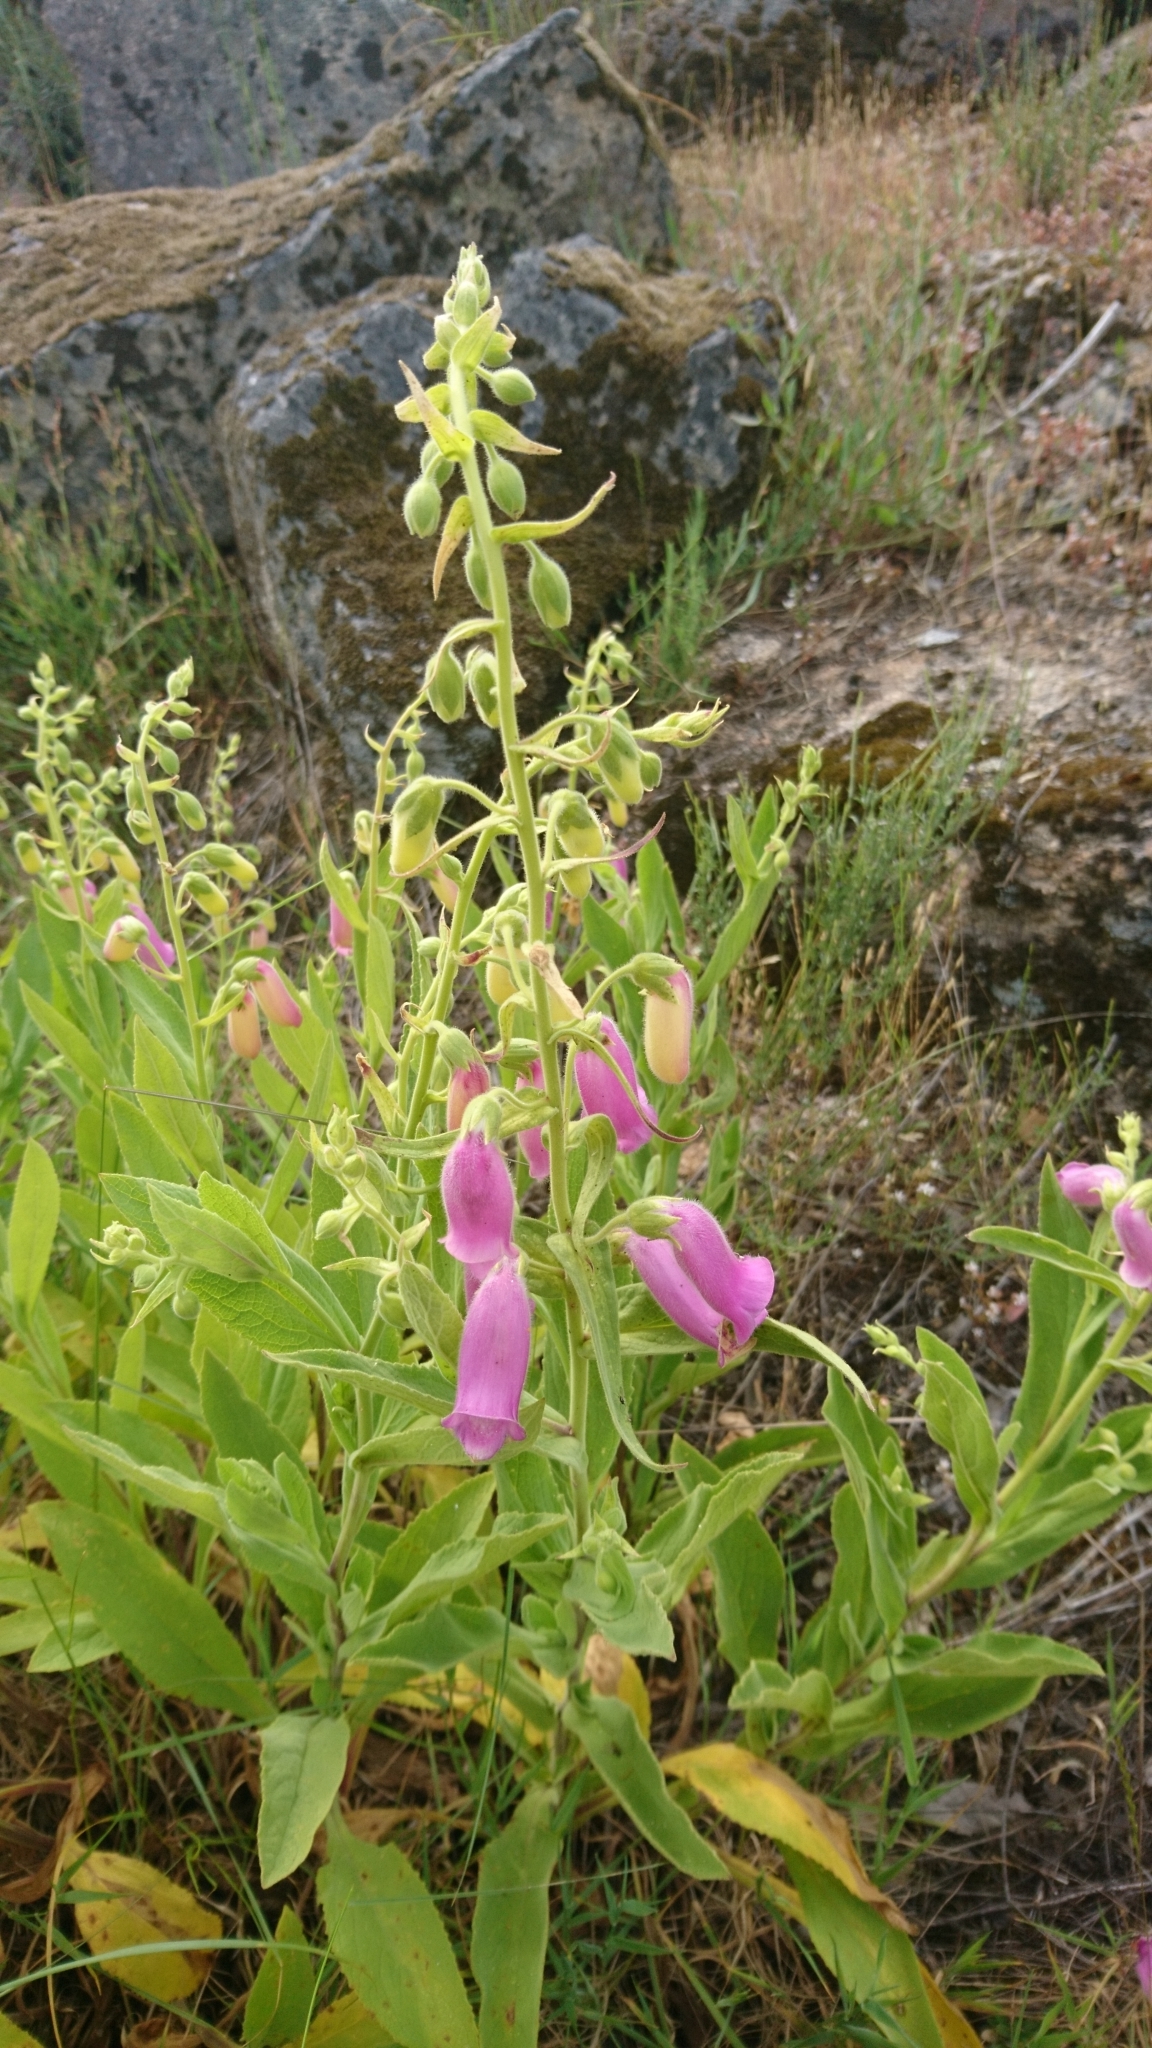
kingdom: Plantae
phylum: Tracheophyta
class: Magnoliopsida
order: Lamiales
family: Plantaginaceae
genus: Digitalis
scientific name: Digitalis thapsi
